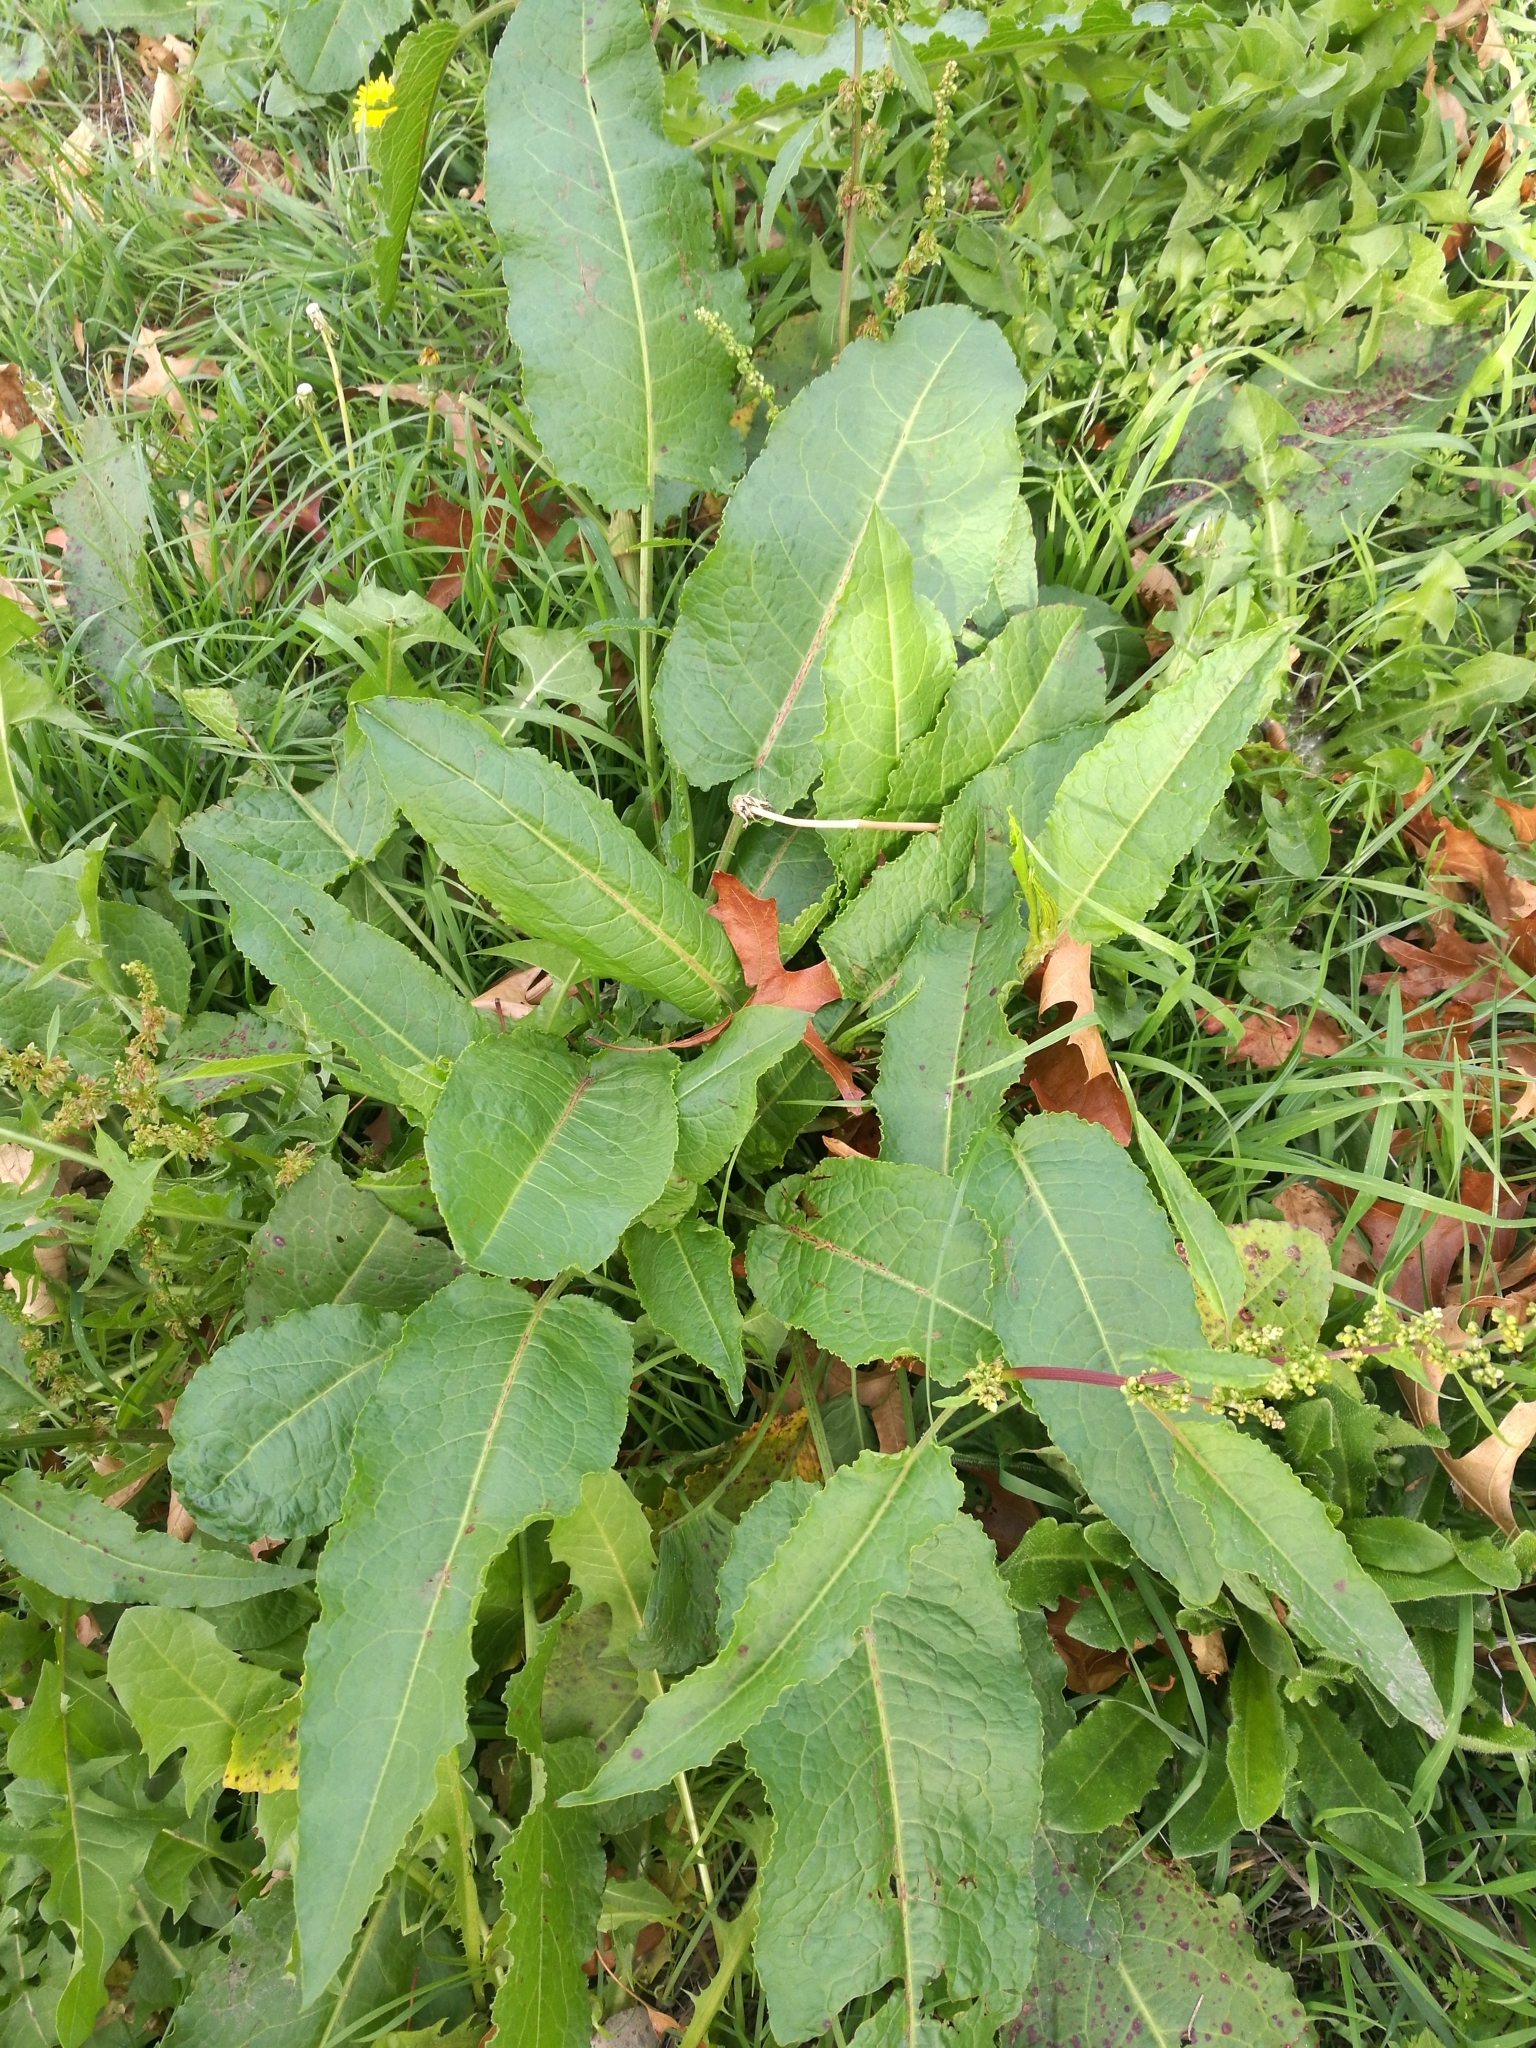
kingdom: Plantae
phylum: Tracheophyta
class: Magnoliopsida
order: Caryophyllales
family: Polygonaceae
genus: Rumex
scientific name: Rumex obtusifolius
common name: Bitter dock
